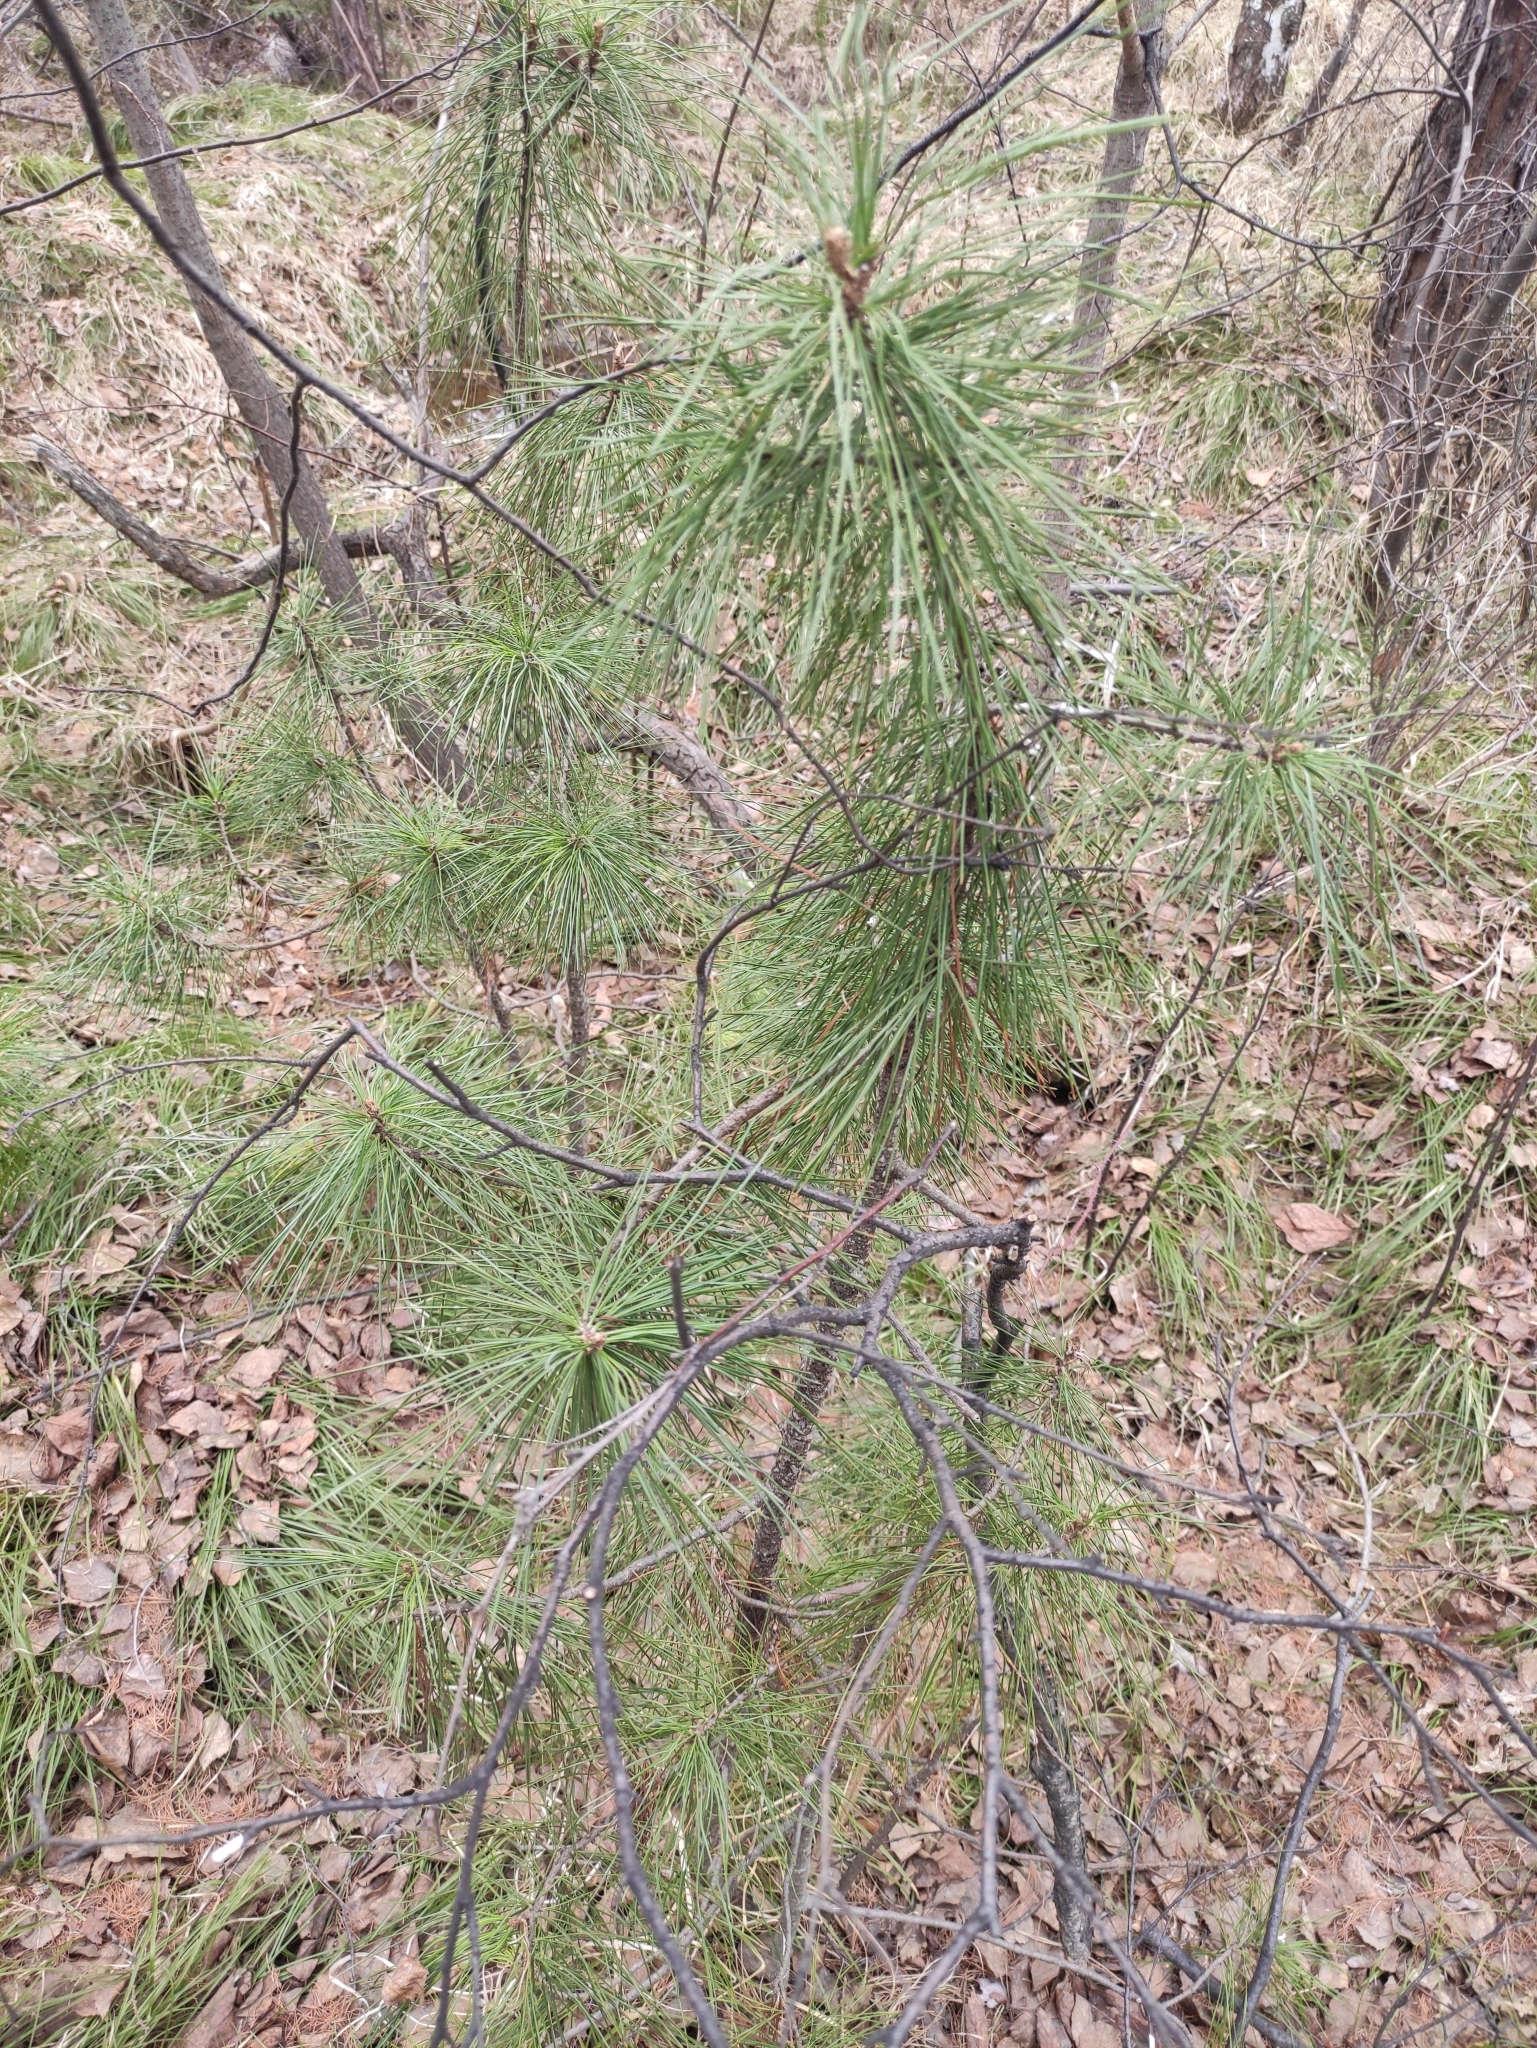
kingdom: Plantae
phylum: Tracheophyta
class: Pinopsida
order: Pinales
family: Pinaceae
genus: Pinus
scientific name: Pinus sibirica
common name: Siberian pine
